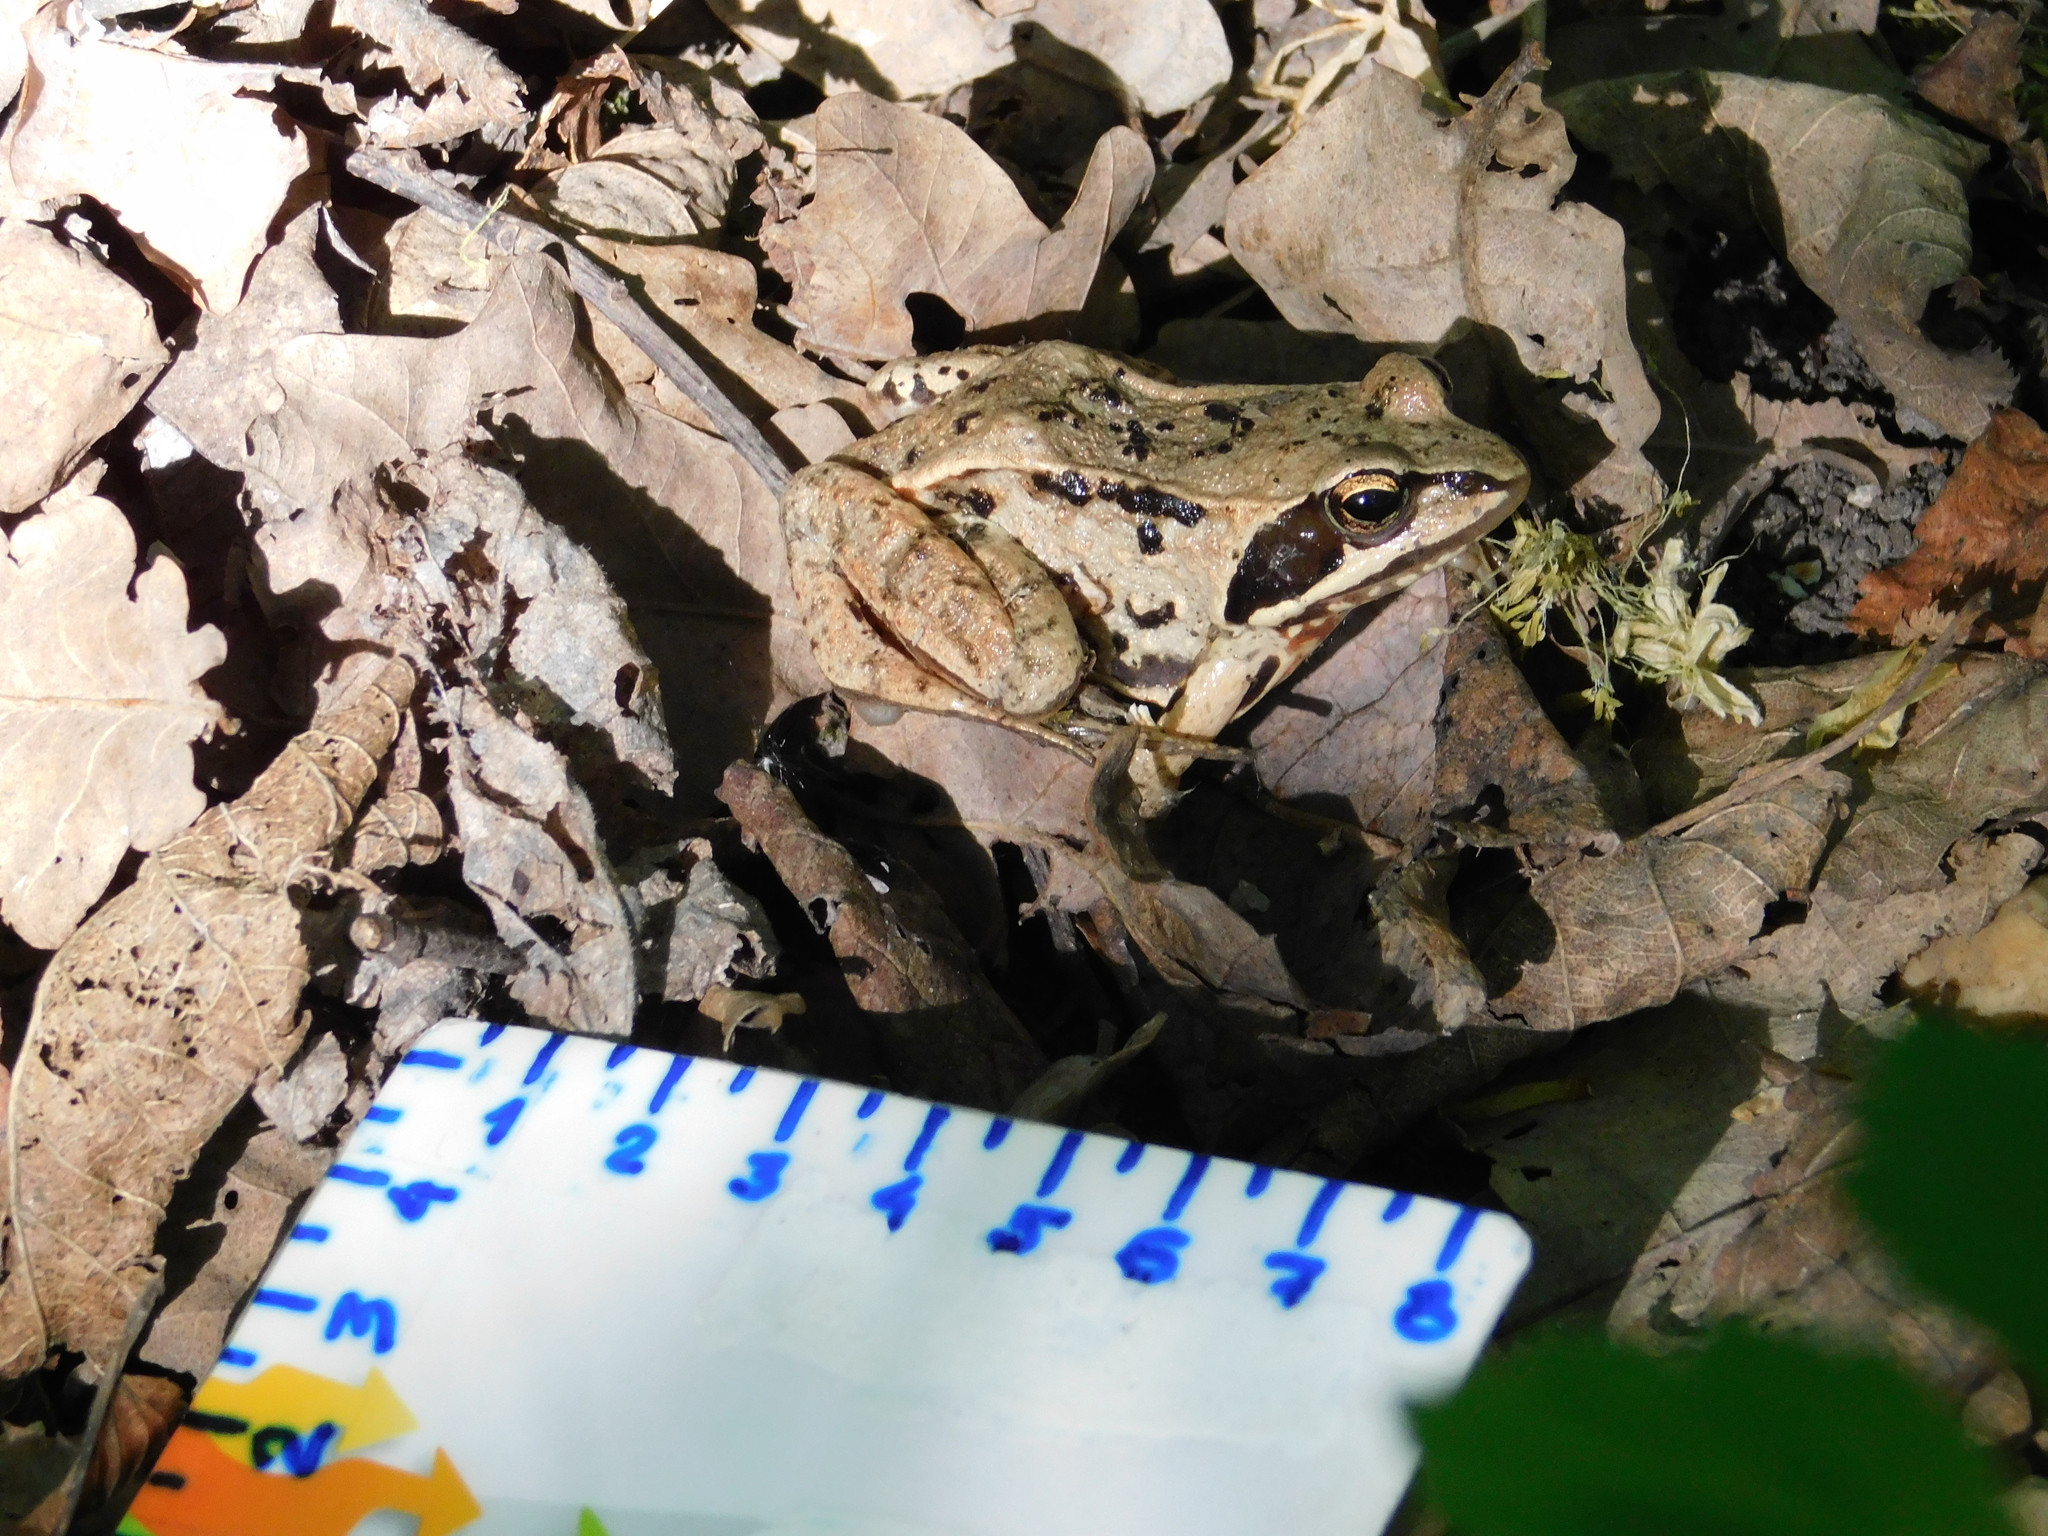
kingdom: Animalia
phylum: Chordata
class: Amphibia
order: Anura
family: Ranidae
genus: Rana
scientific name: Rana arvalis
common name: Moor frog
